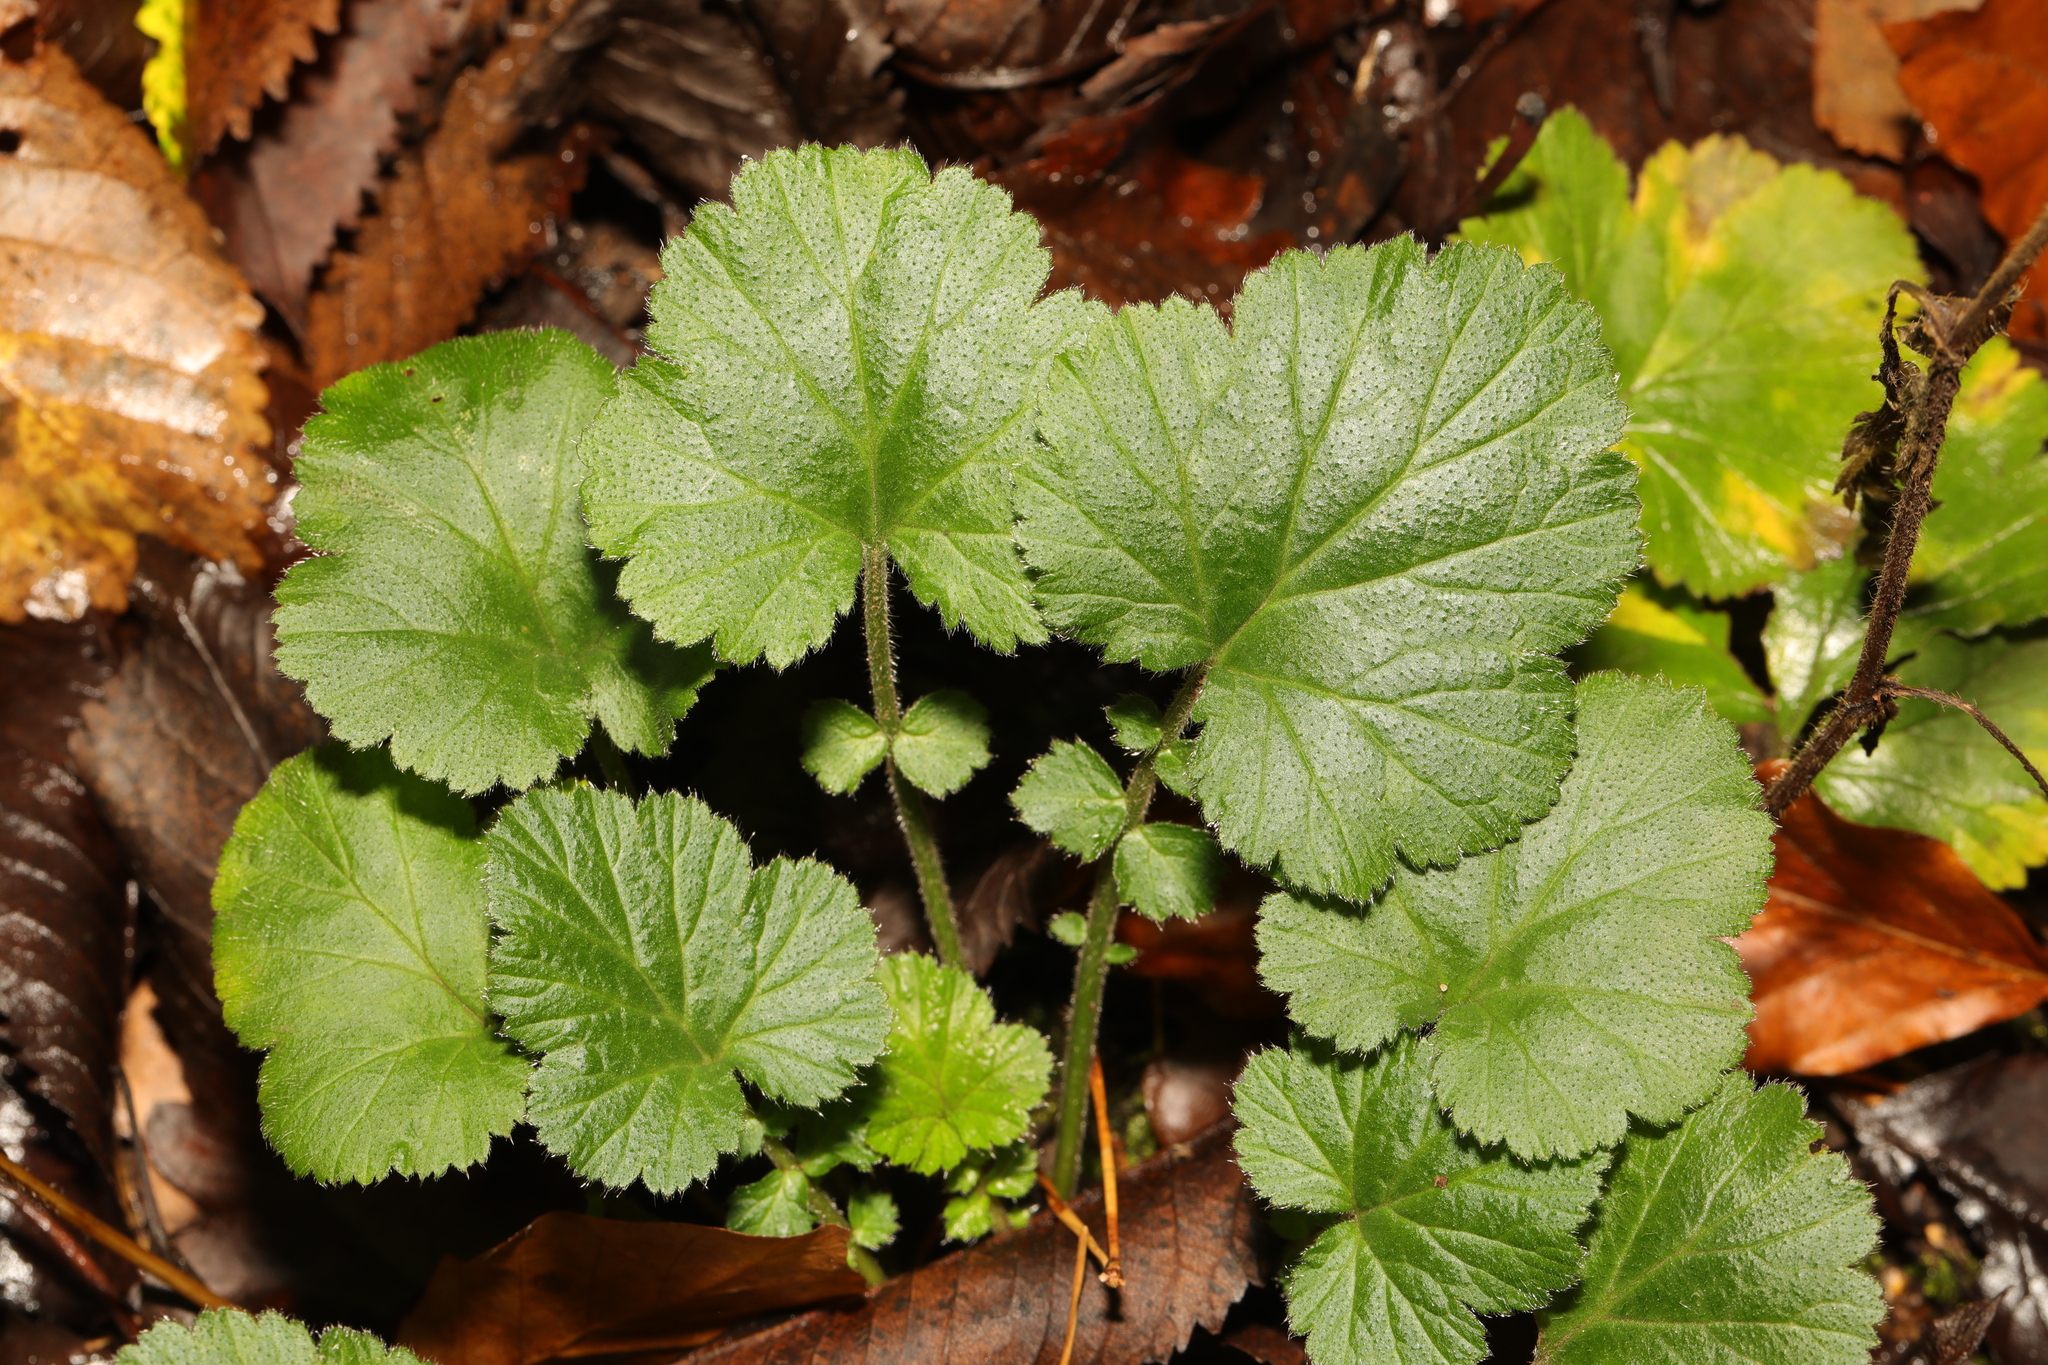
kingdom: Plantae
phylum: Tracheophyta
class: Magnoliopsida
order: Rosales
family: Rosaceae
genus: Geum
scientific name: Geum urbanum
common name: Wood avens
